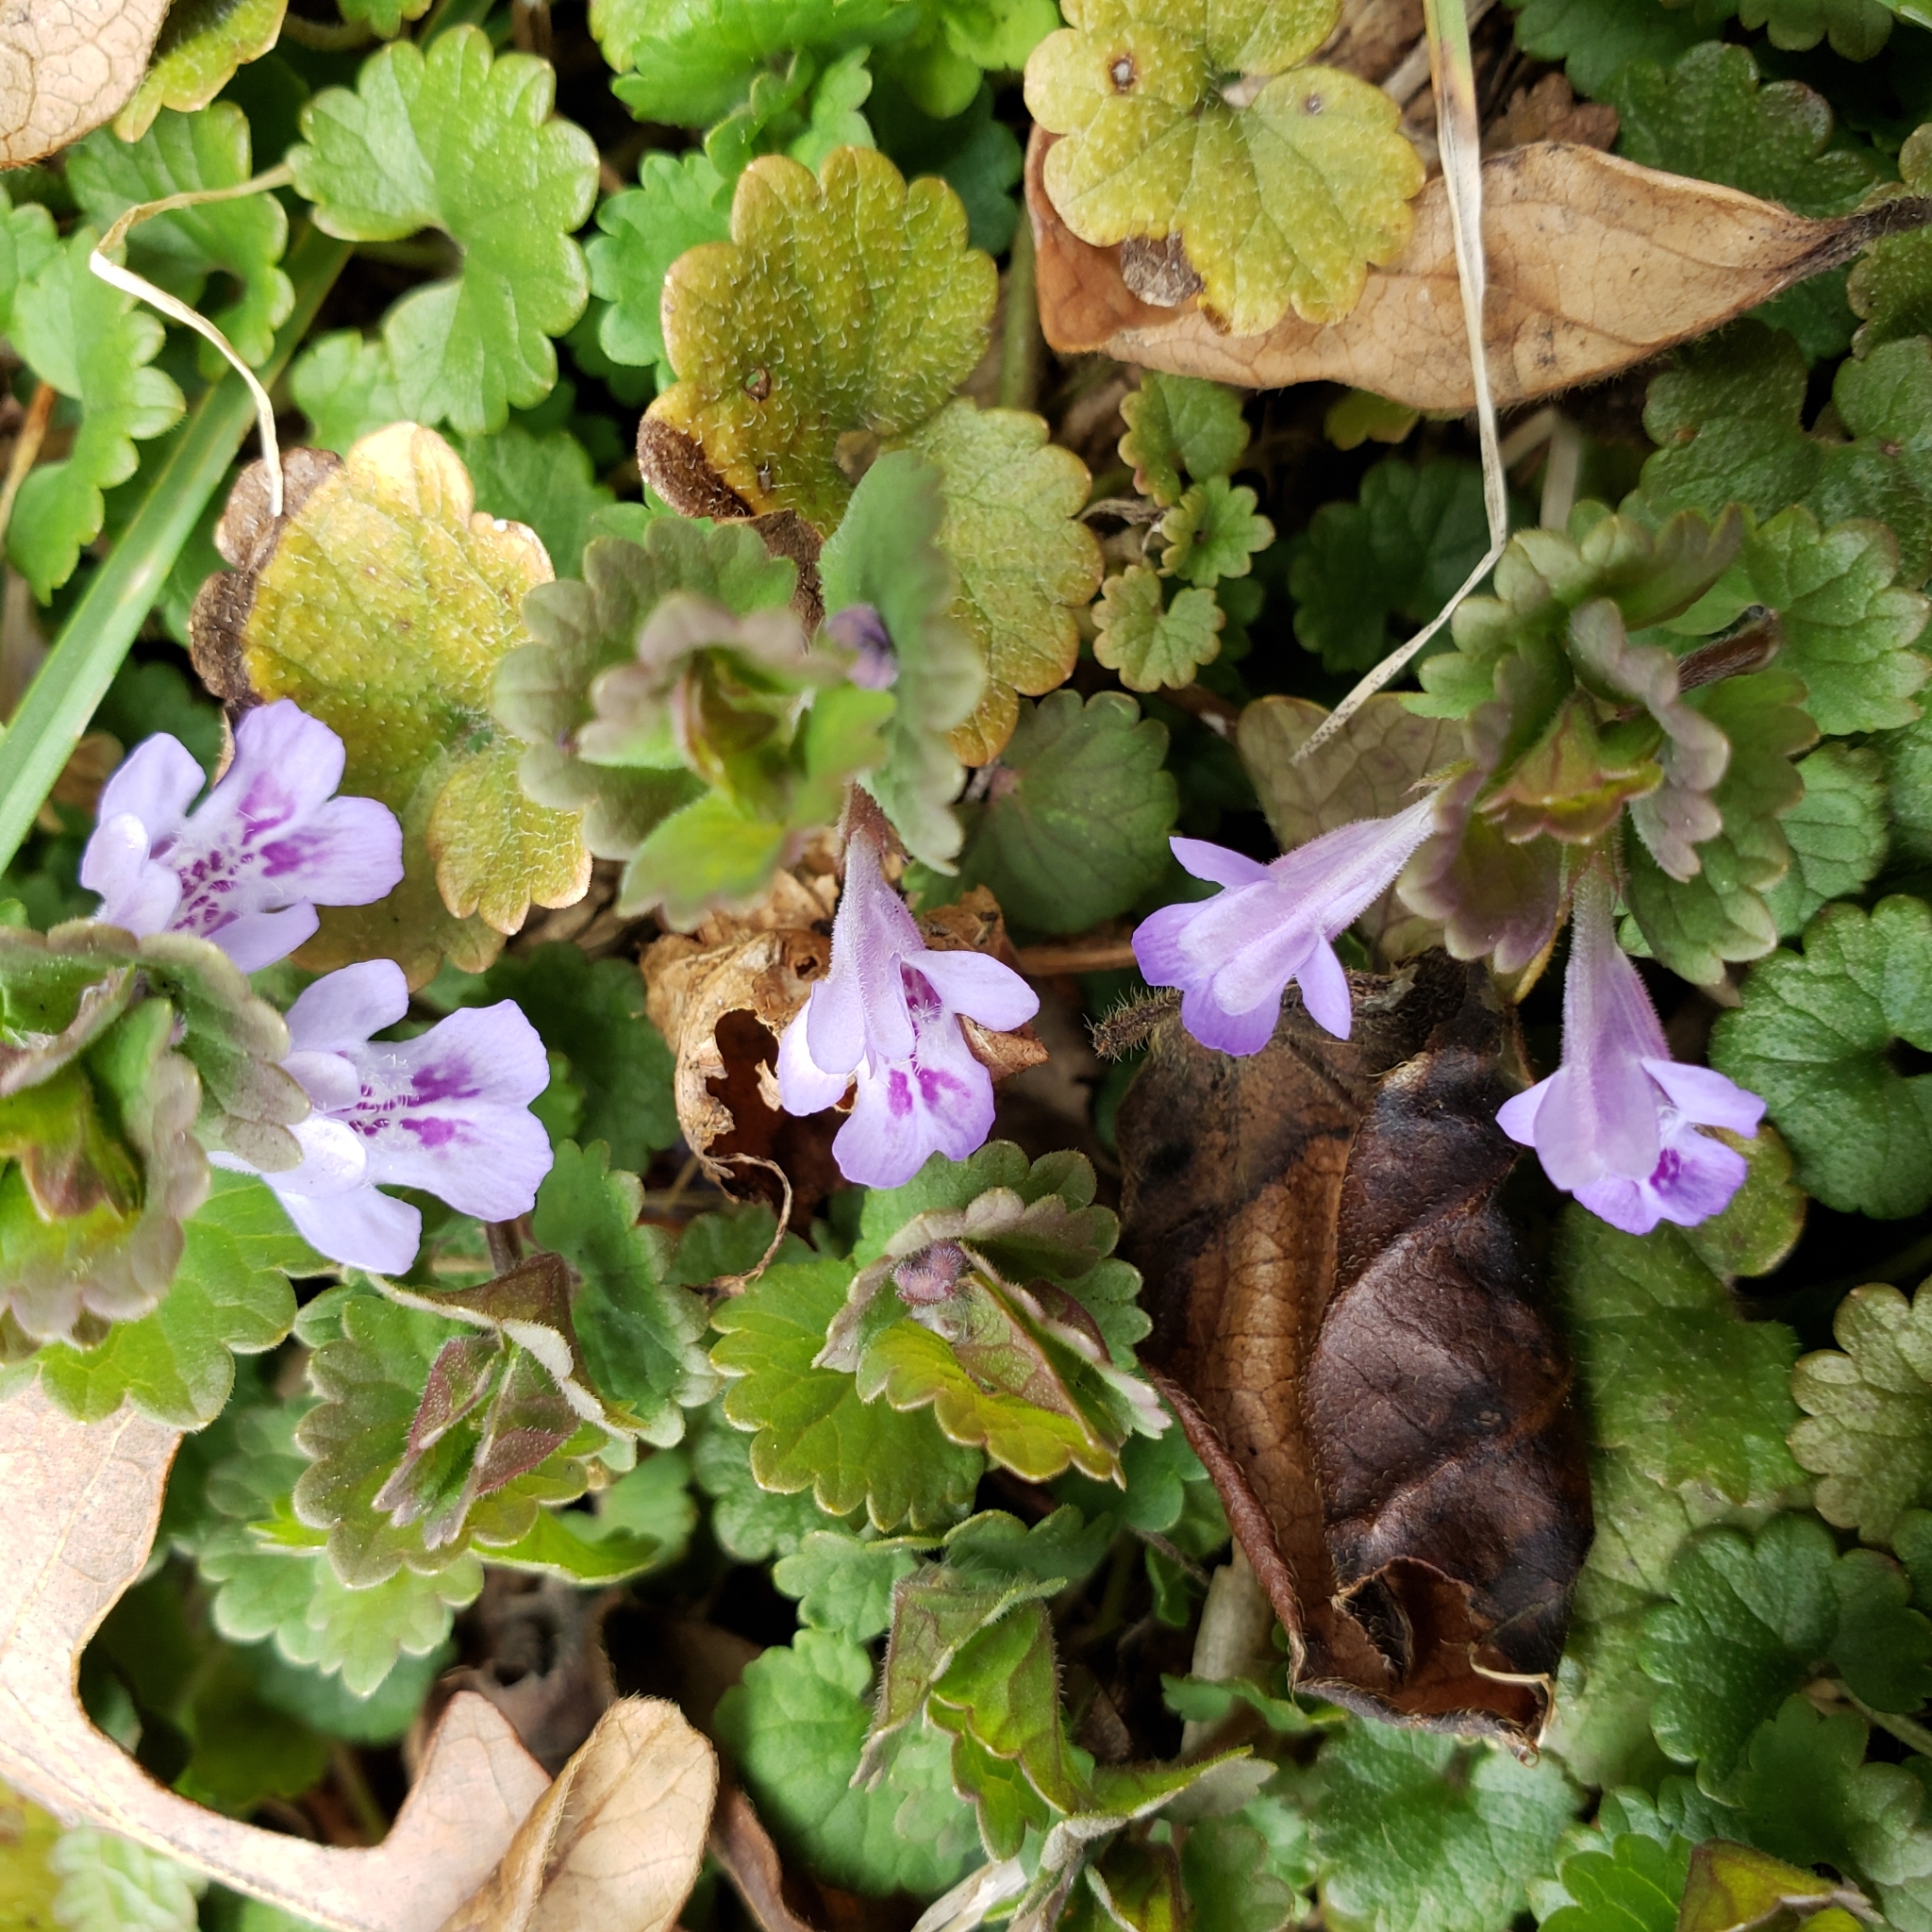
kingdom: Plantae
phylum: Tracheophyta
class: Magnoliopsida
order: Lamiales
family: Lamiaceae
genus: Glechoma
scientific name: Glechoma hederacea
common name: Ground ivy
